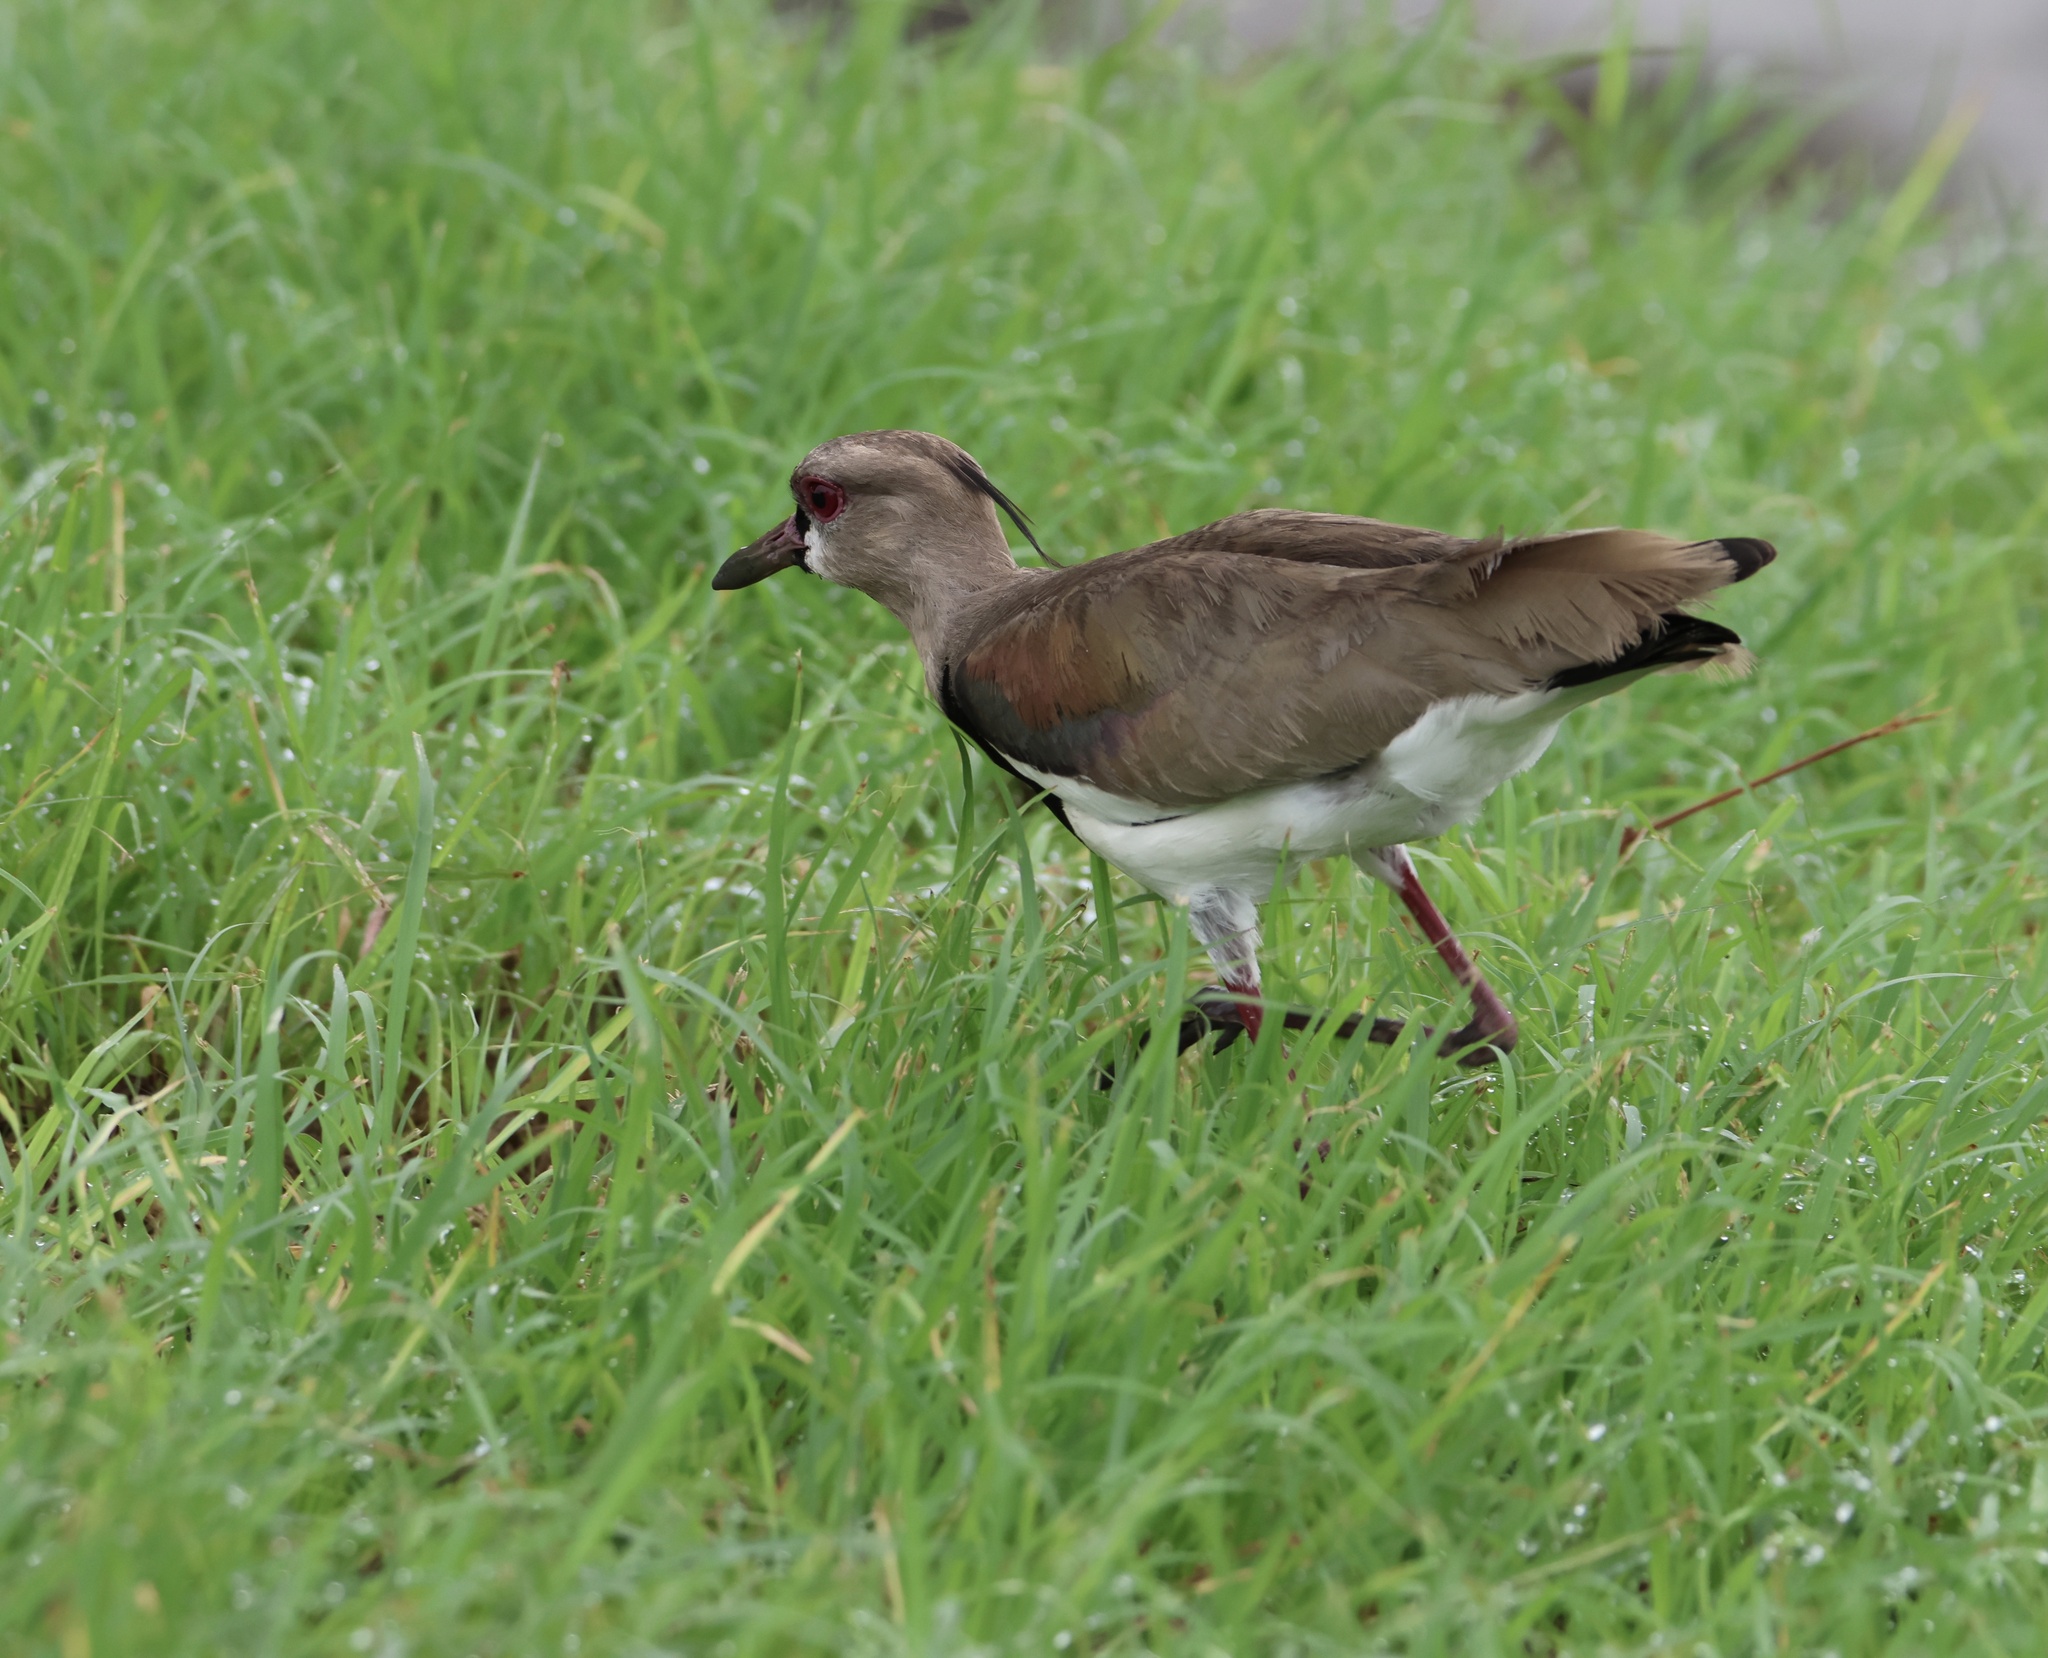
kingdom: Animalia
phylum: Chordata
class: Aves
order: Charadriiformes
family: Charadriidae
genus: Vanellus
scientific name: Vanellus chilensis
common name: Southern lapwing
